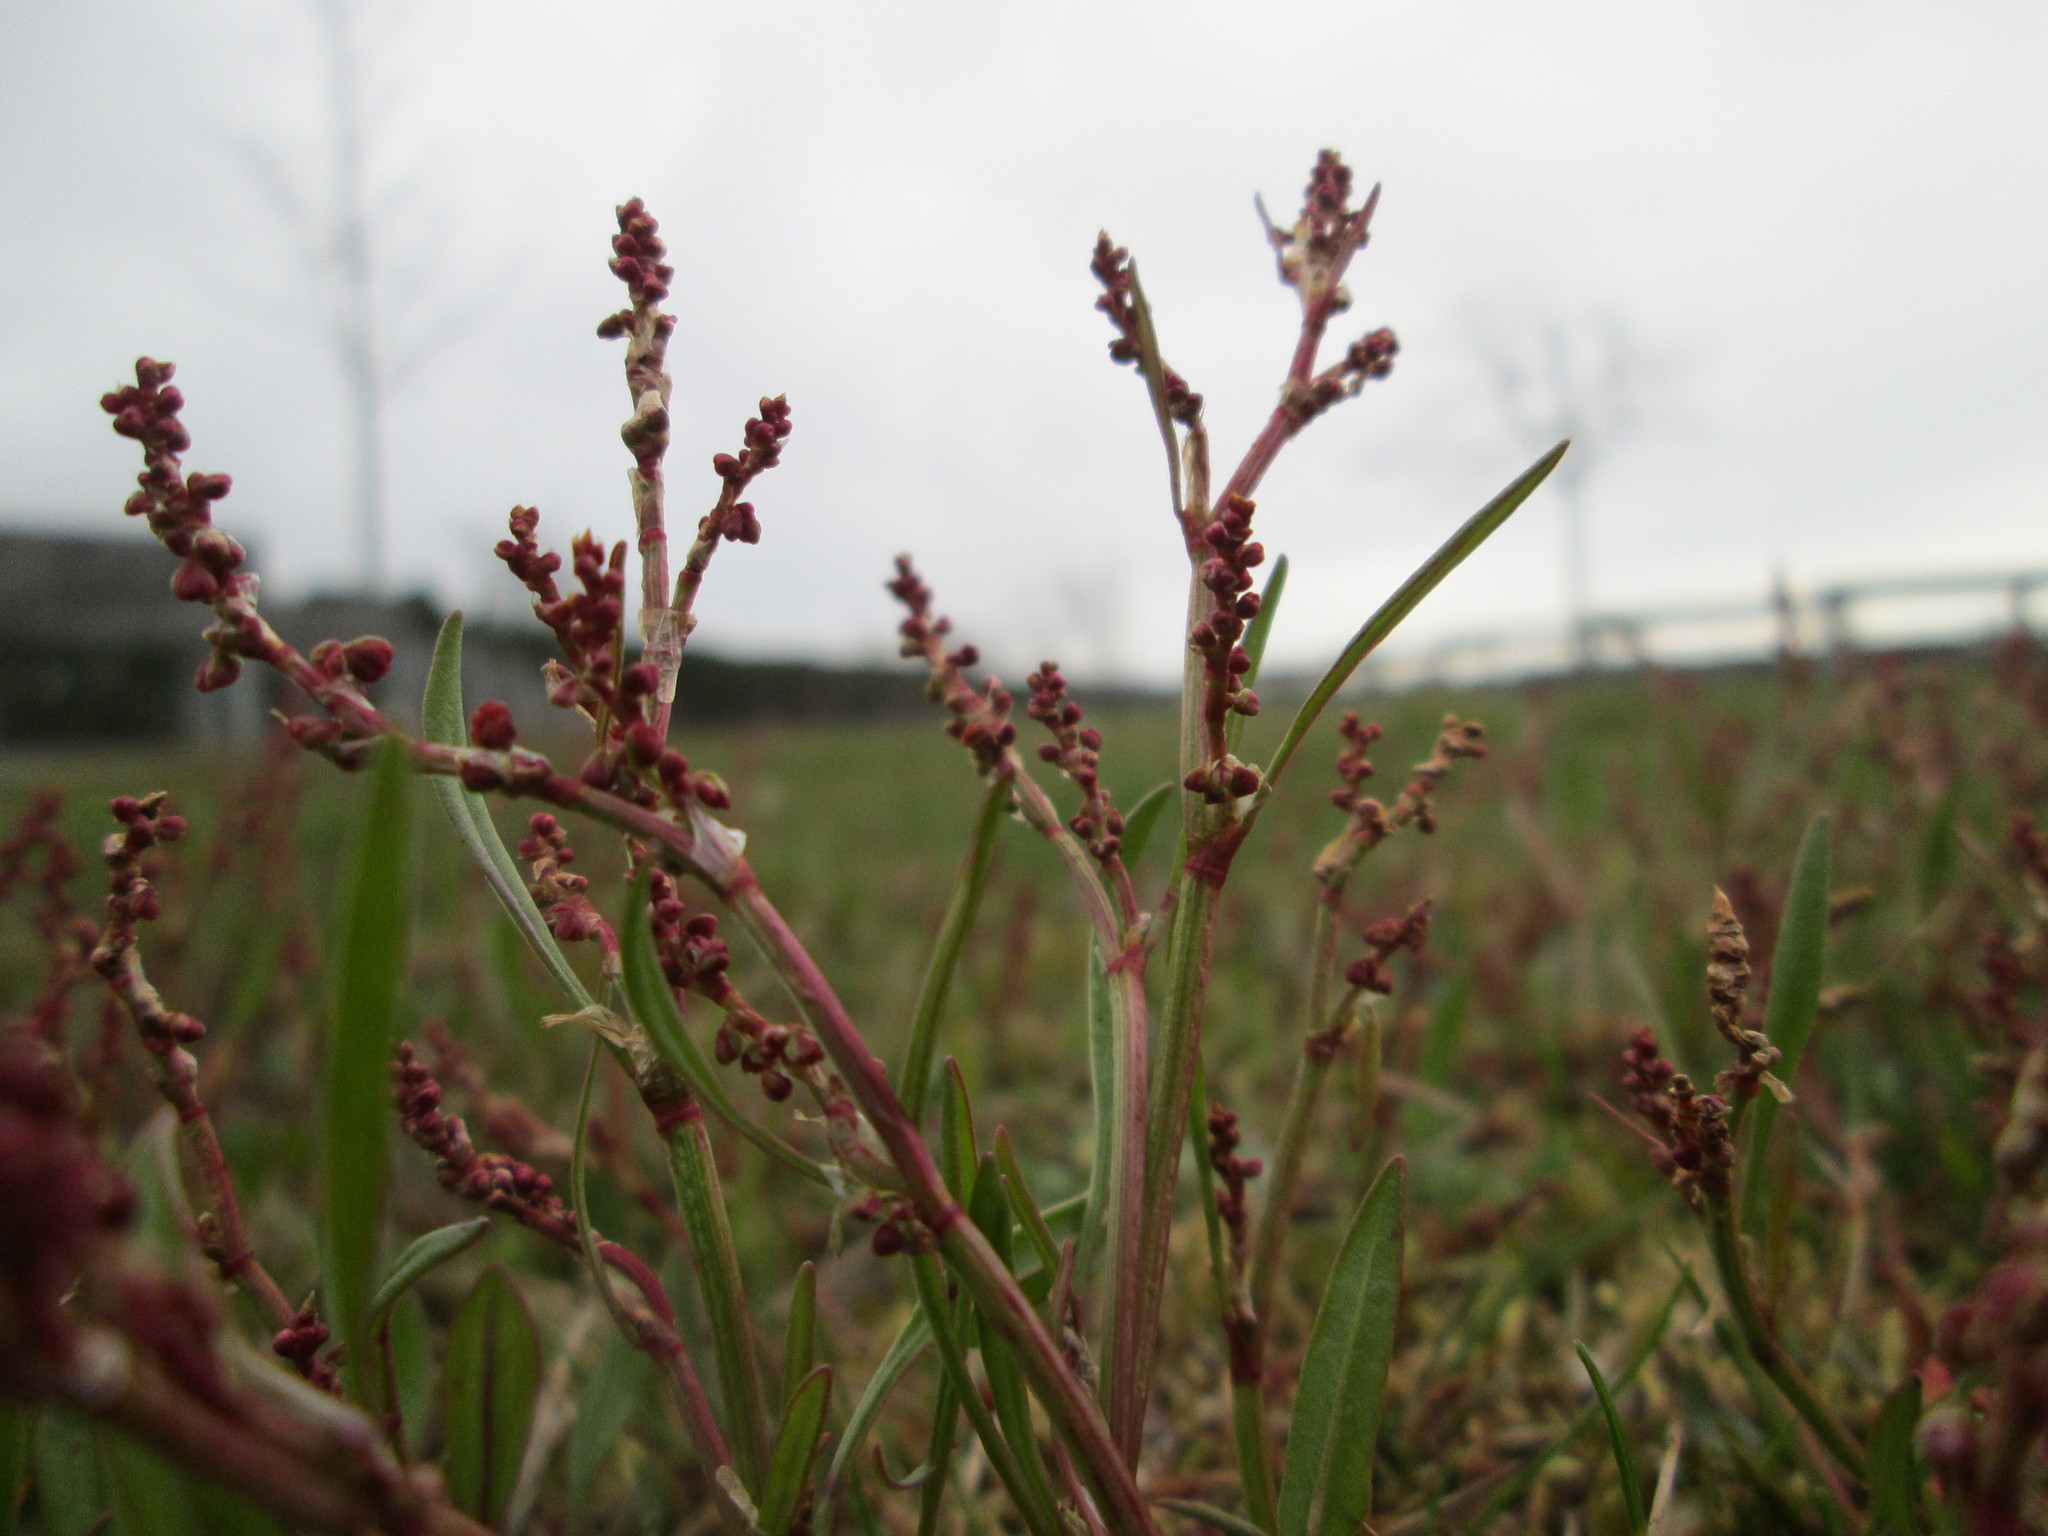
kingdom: Plantae
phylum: Tracheophyta
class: Magnoliopsida
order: Caryophyllales
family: Polygonaceae
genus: Rumex
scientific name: Rumex acetosella
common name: Common sheep sorrel
